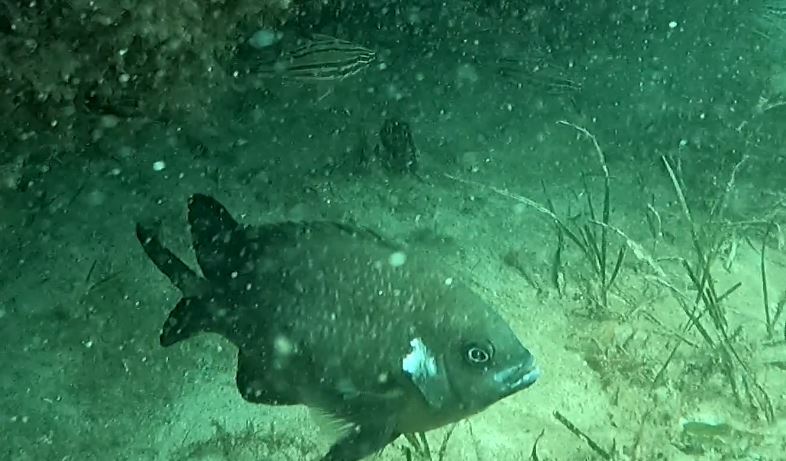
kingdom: Animalia
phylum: Chordata
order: Perciformes
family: Pomacentridae
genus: Parma
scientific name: Parma microlepis
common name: White-ear
